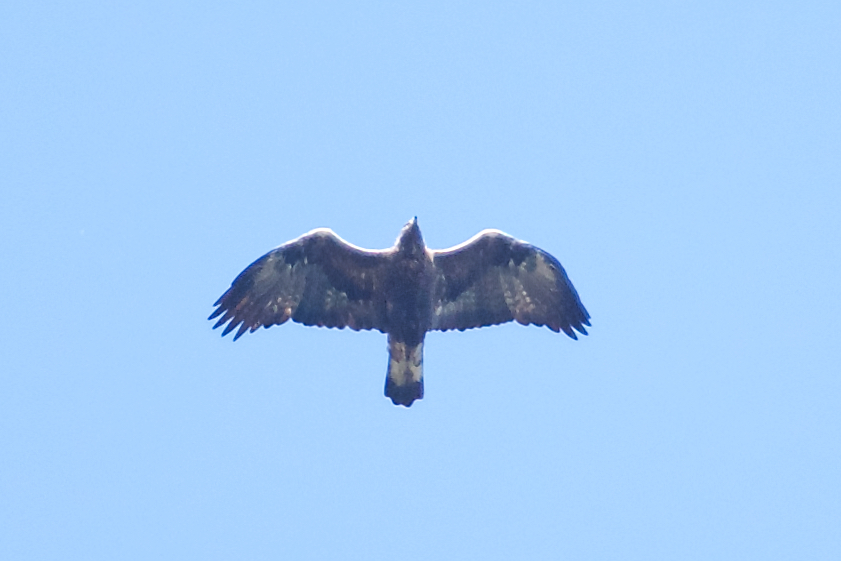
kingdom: Animalia
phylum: Chordata
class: Aves
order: Accipitriformes
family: Accipitridae
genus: Aquila
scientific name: Aquila chrysaetos
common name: Golden eagle
